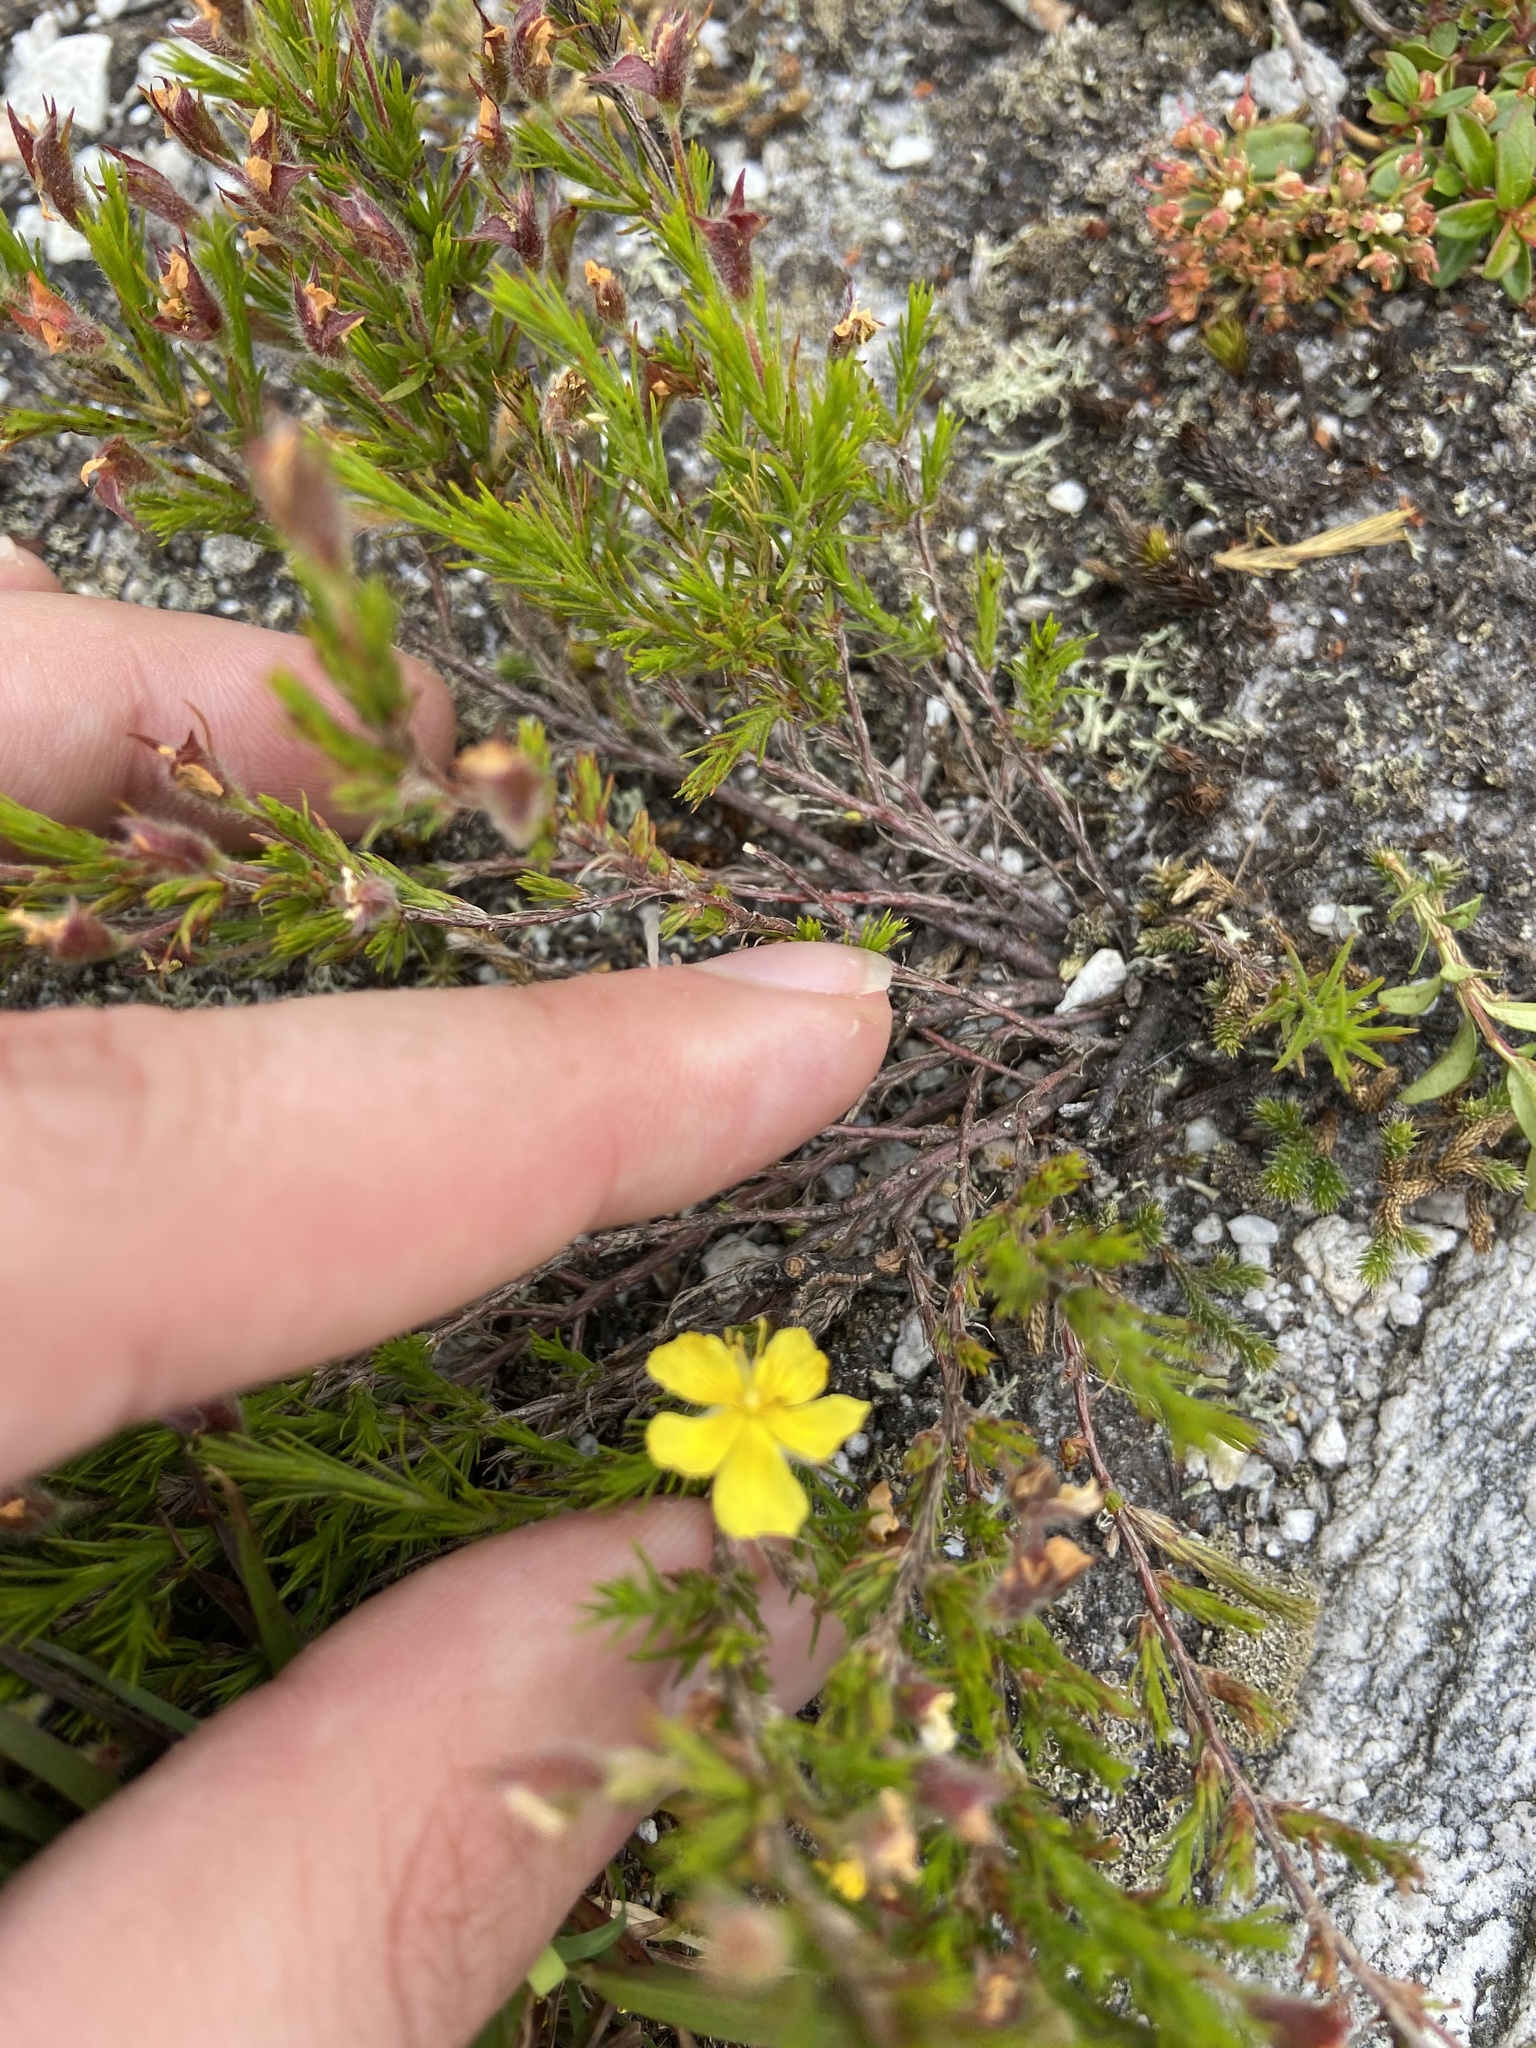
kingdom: Plantae
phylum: Tracheophyta
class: Magnoliopsida
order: Malvales
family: Cistaceae
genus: Hudsonia
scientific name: Hudsonia montana
